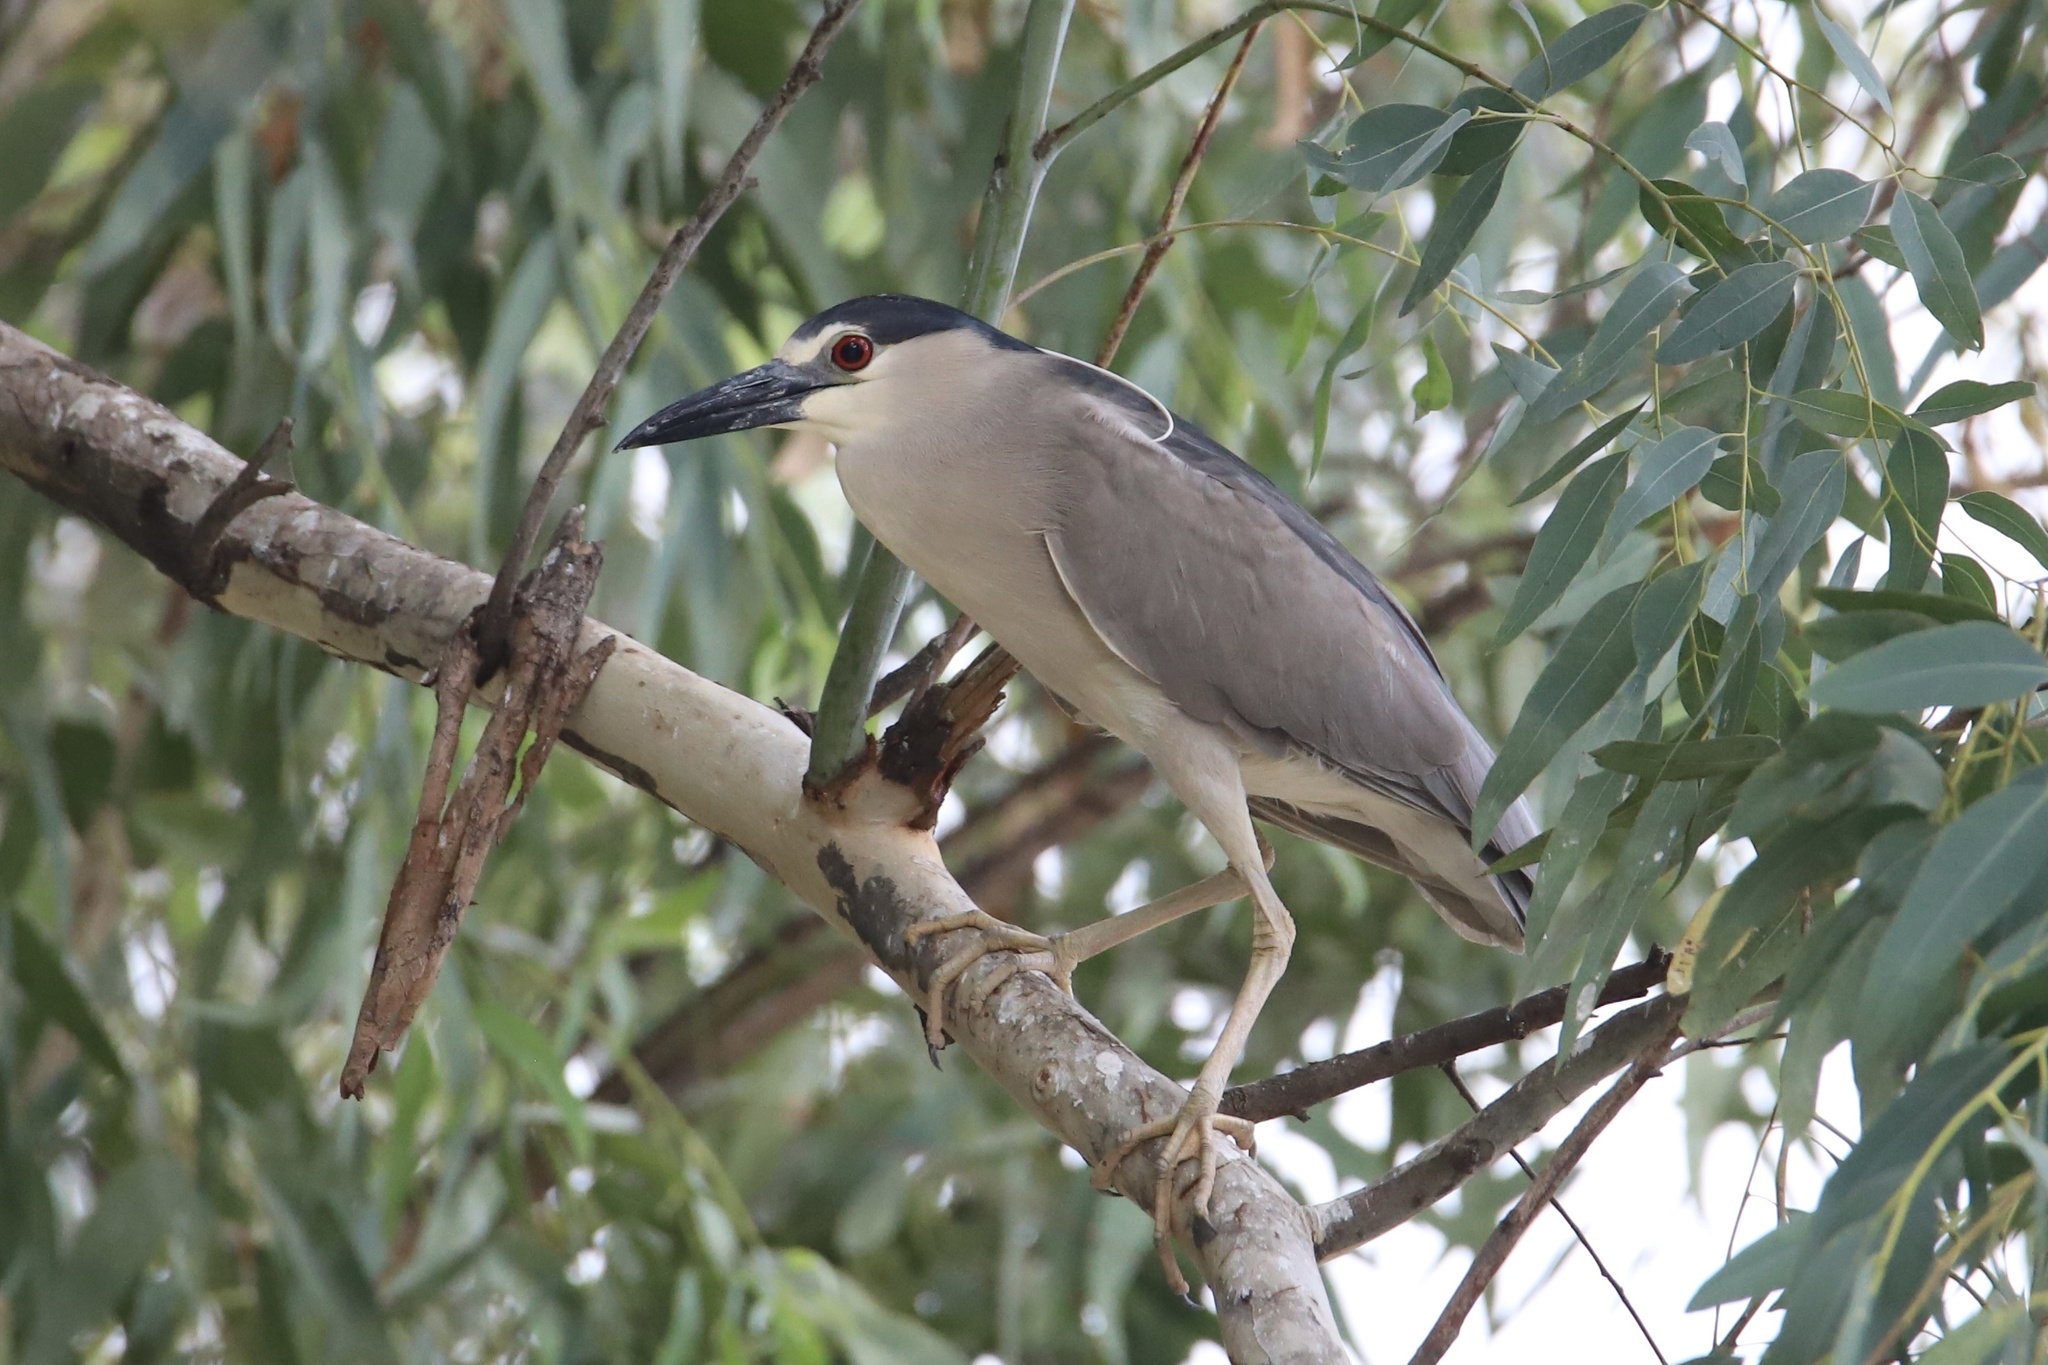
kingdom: Animalia
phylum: Chordata
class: Aves
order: Pelecaniformes
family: Ardeidae
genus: Nycticorax
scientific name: Nycticorax nycticorax
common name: Black-crowned night heron
